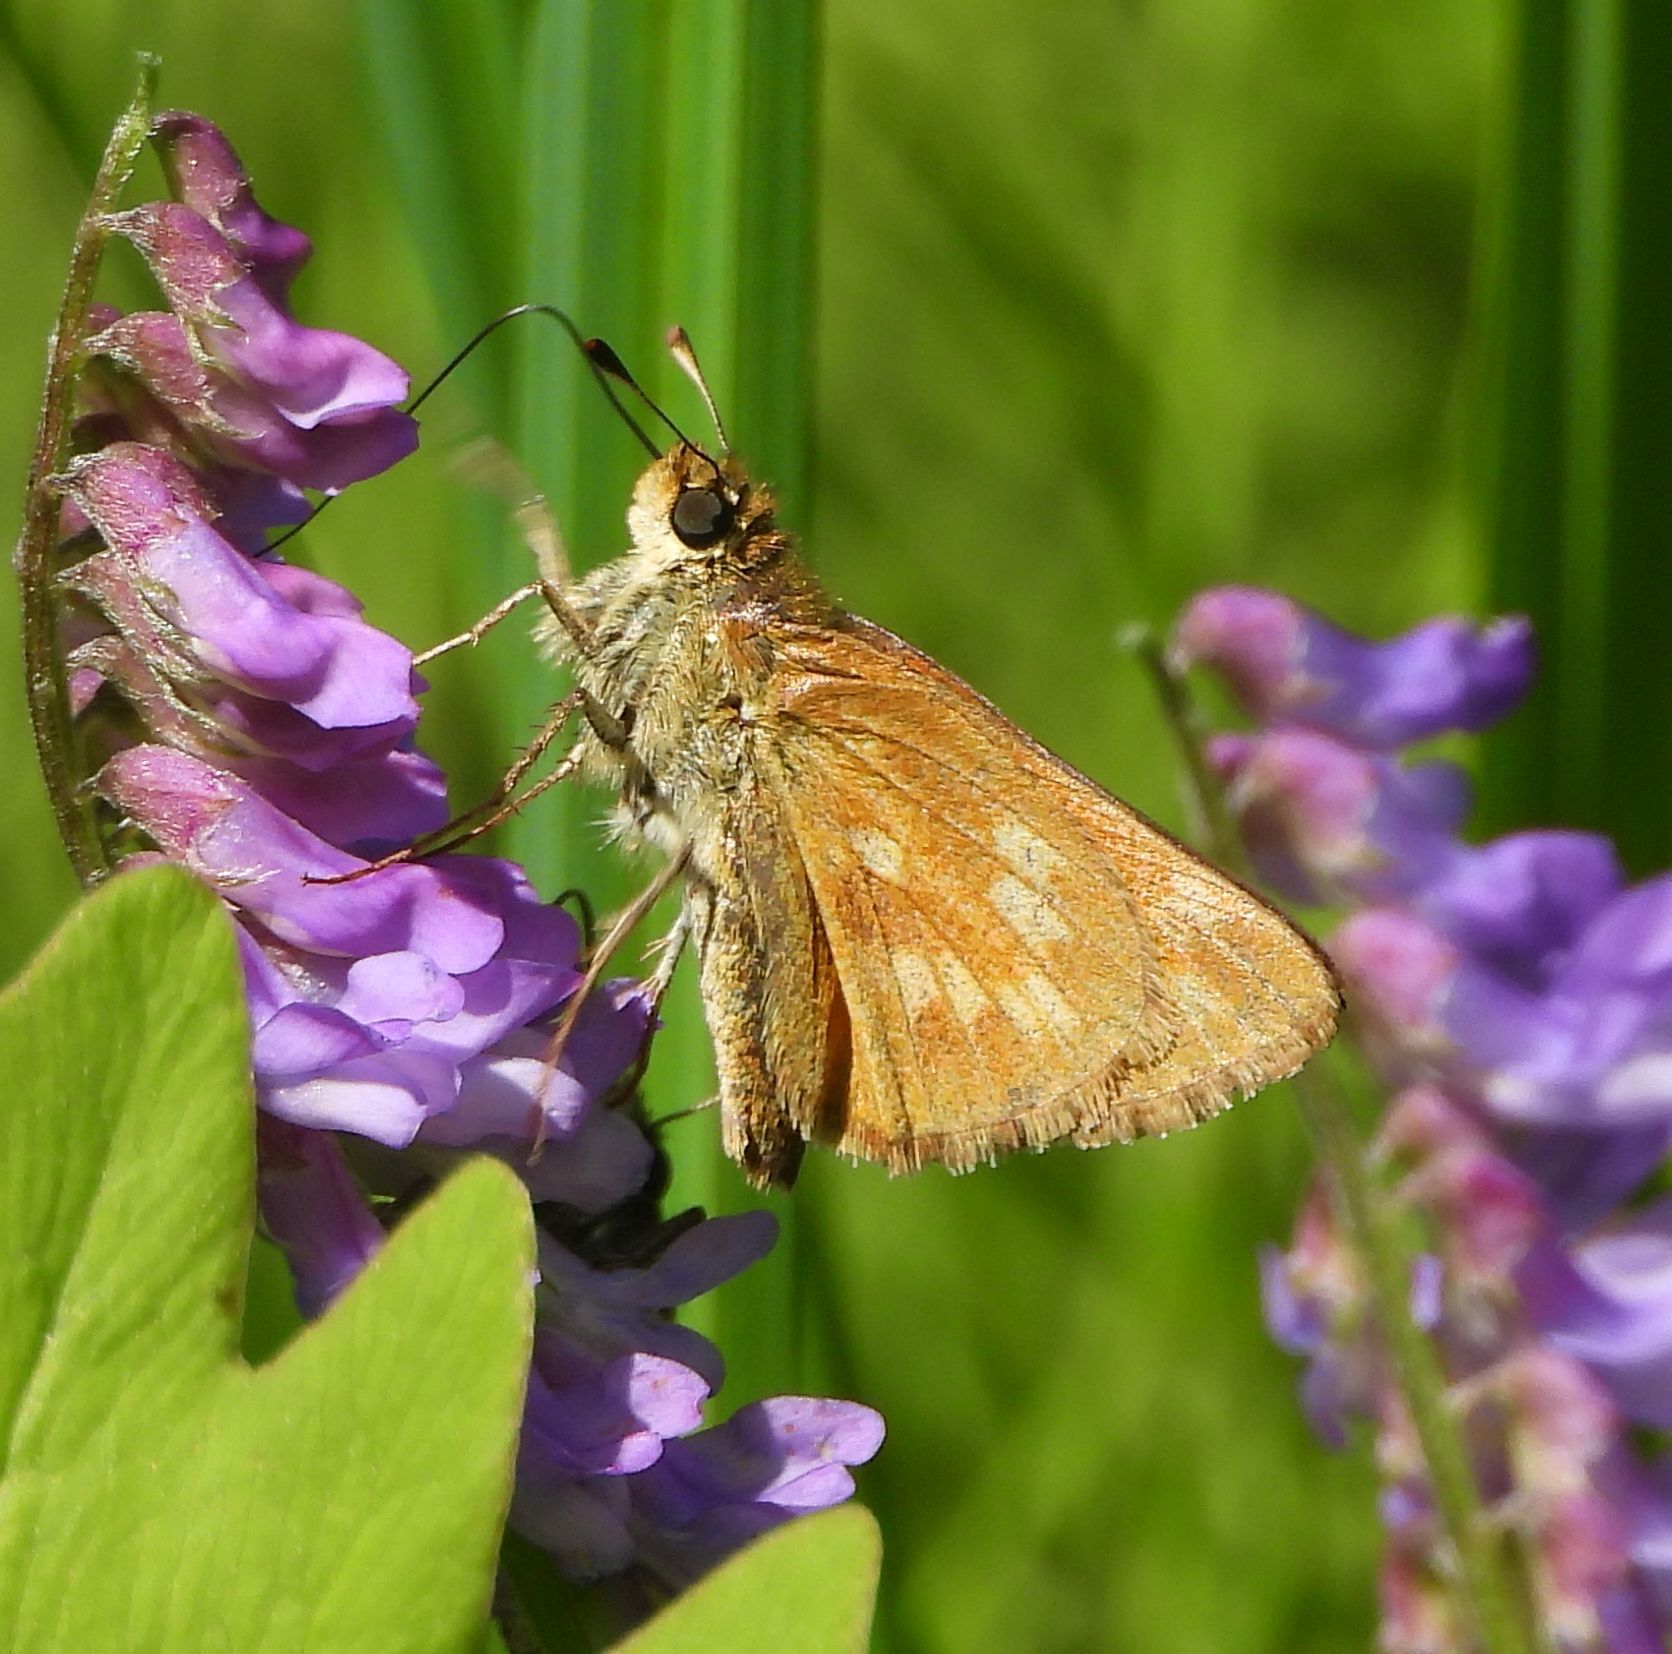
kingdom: Animalia
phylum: Arthropoda
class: Insecta
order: Lepidoptera
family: Hesperiidae
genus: Hesperia
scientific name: Hesperia sassacus
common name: Indian skipper
